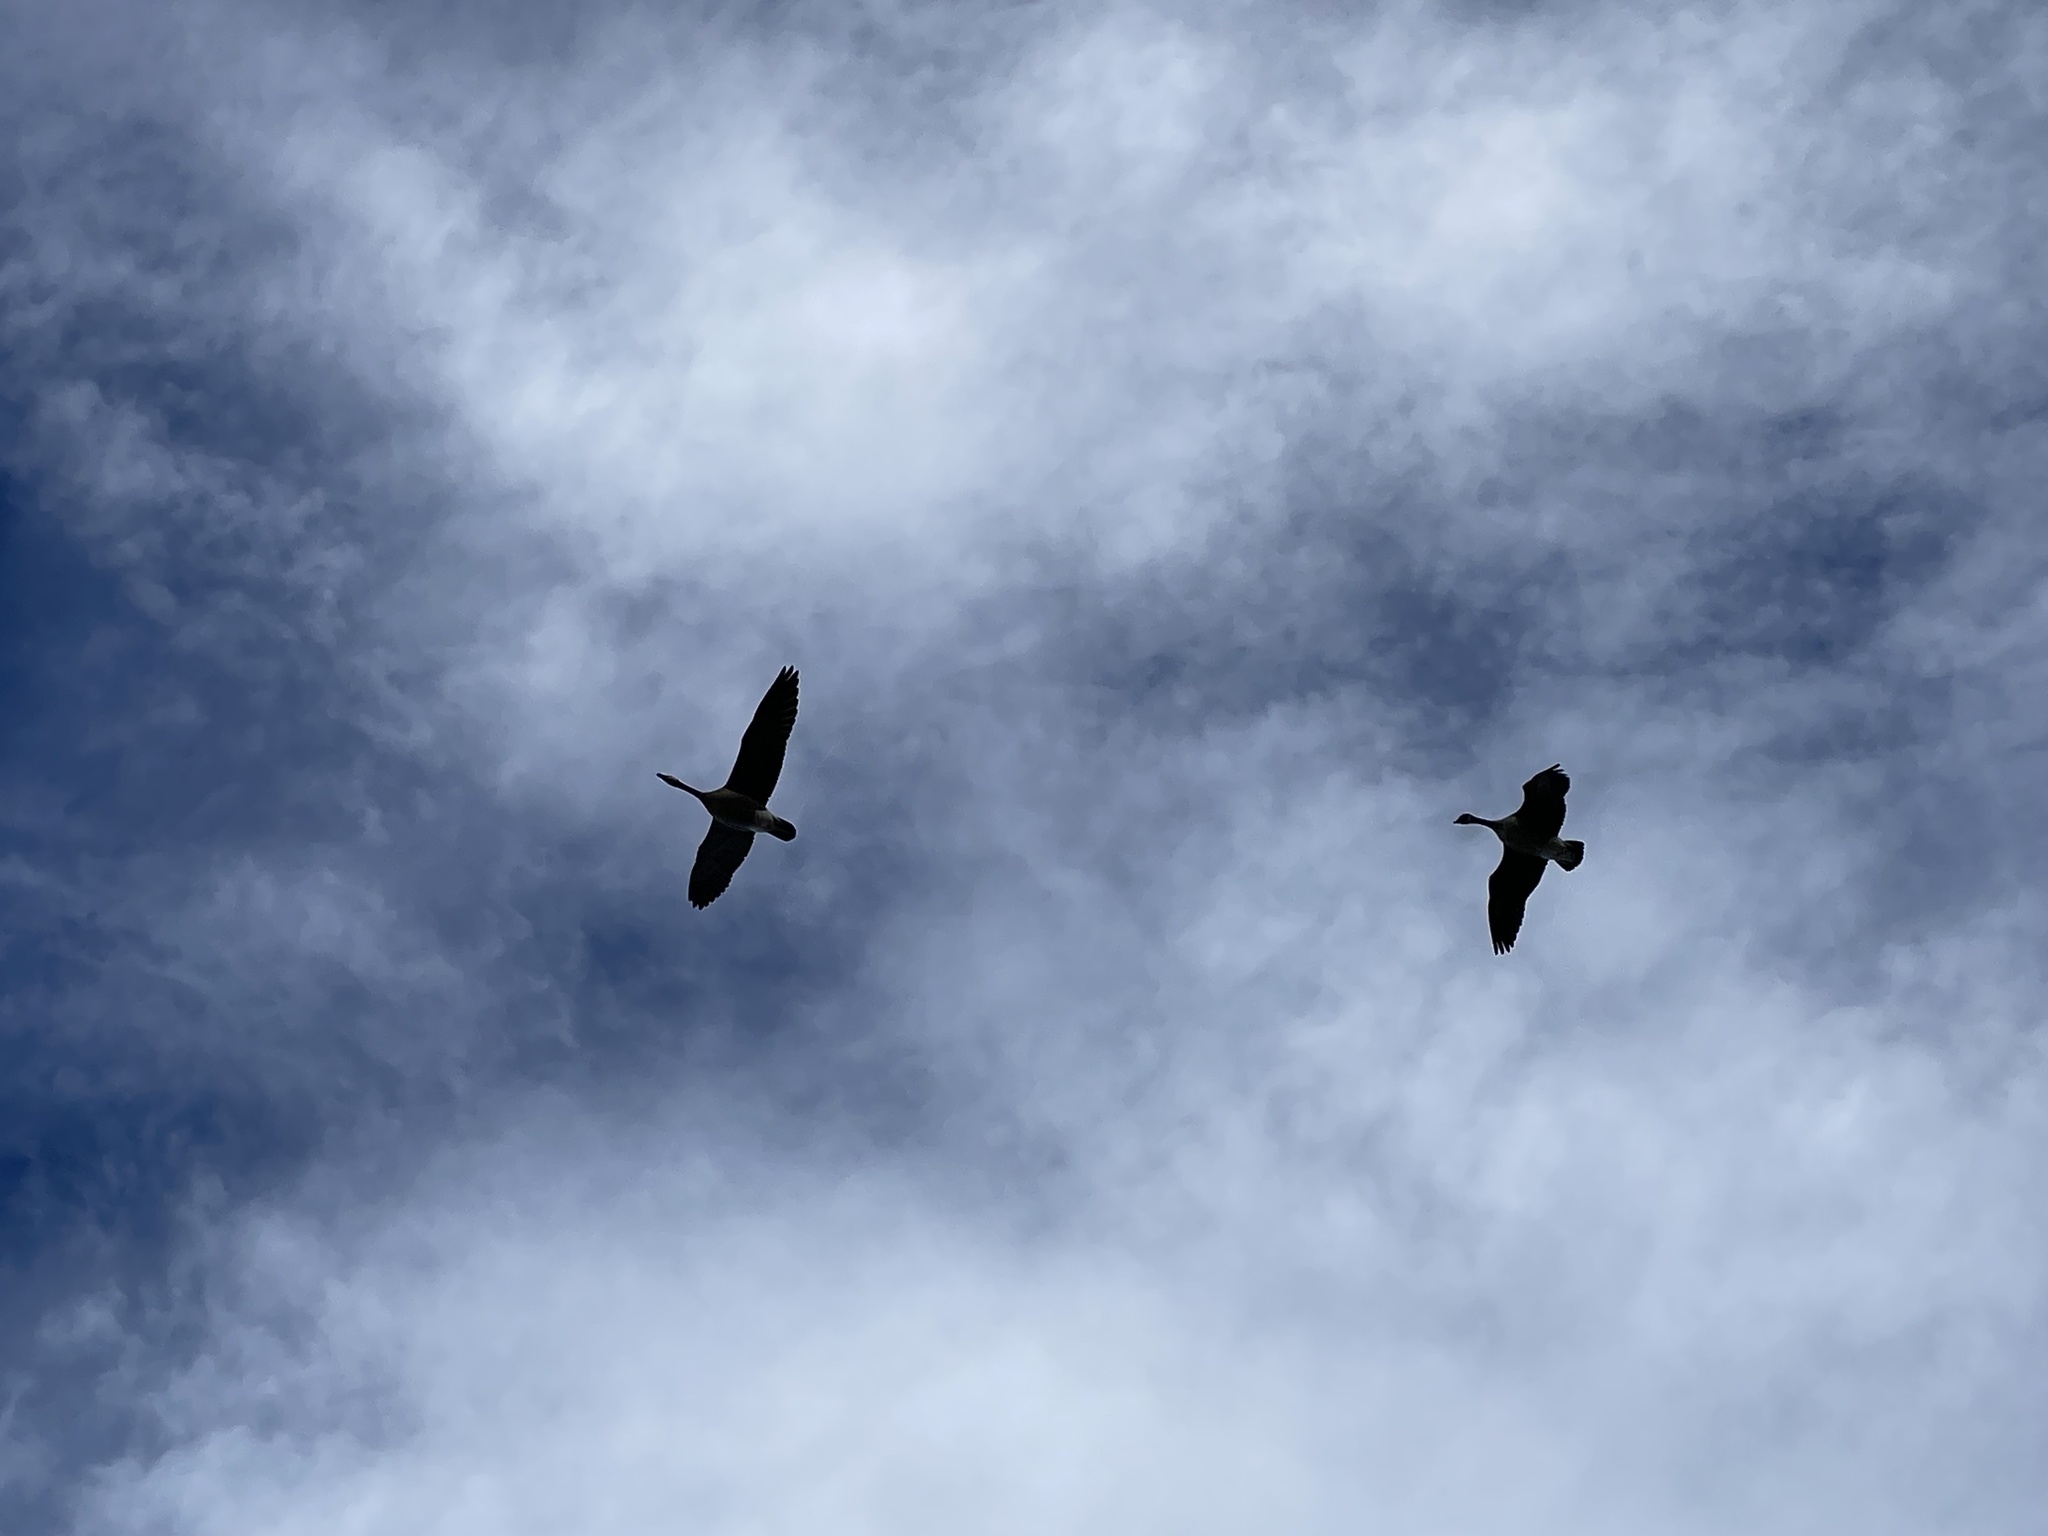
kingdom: Animalia
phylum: Chordata
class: Aves
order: Anseriformes
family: Anatidae
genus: Branta
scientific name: Branta canadensis
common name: Canada goose
